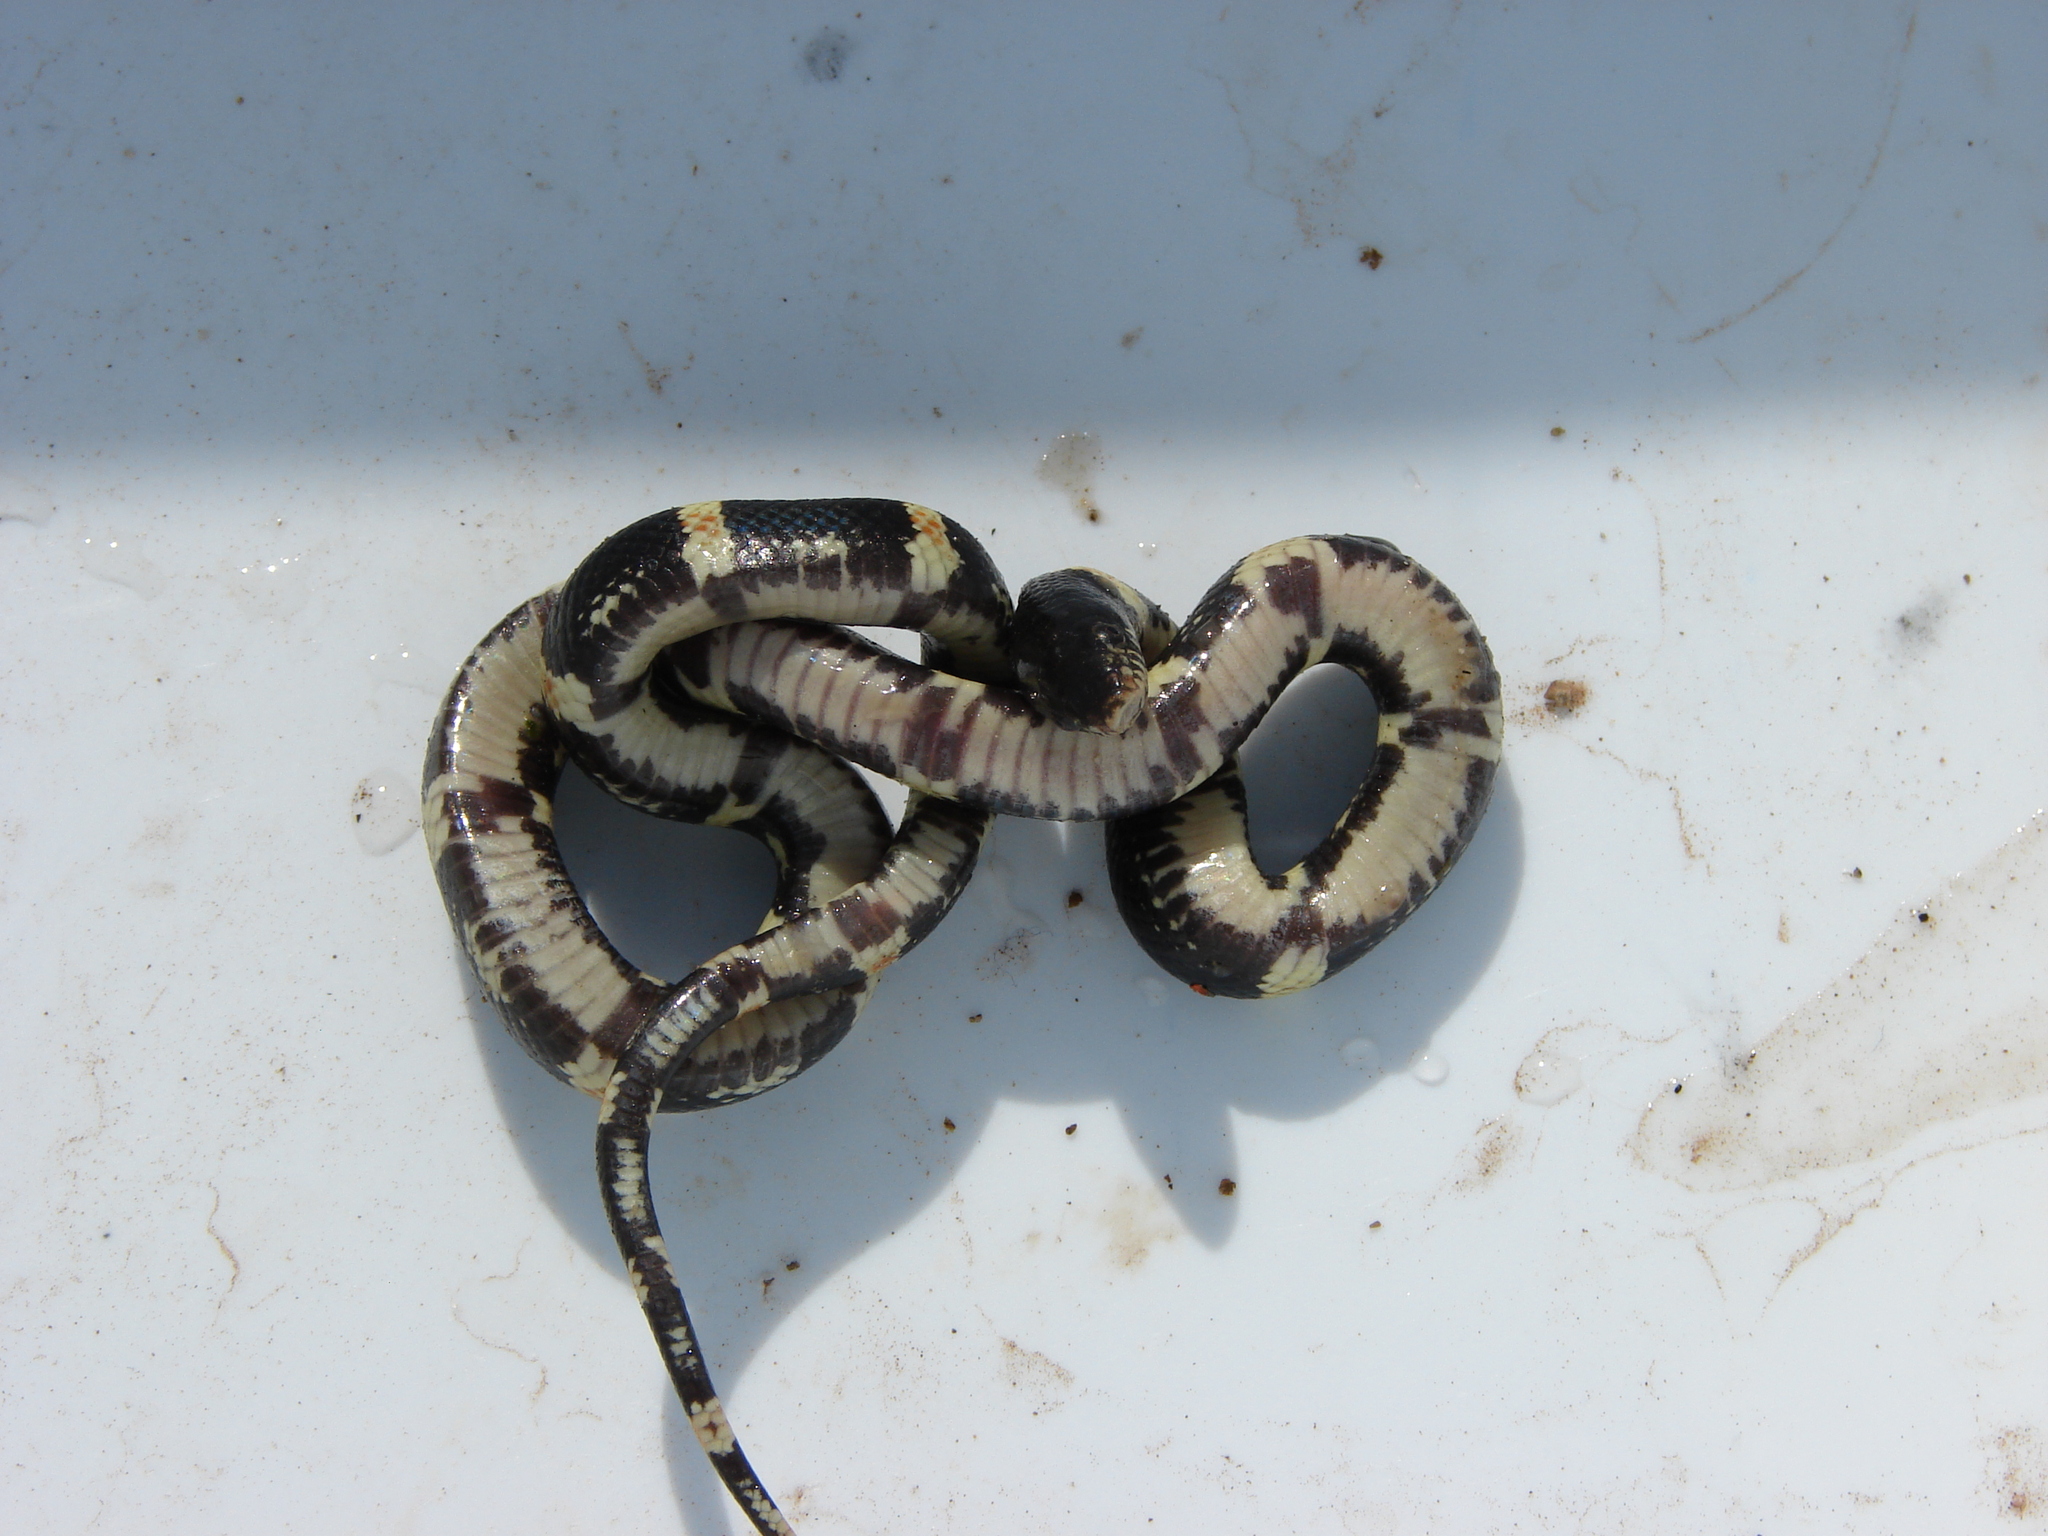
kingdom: Animalia
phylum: Chordata
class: Squamata
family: Colubridae
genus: Rhinocheilus
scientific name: Rhinocheilus antonii
